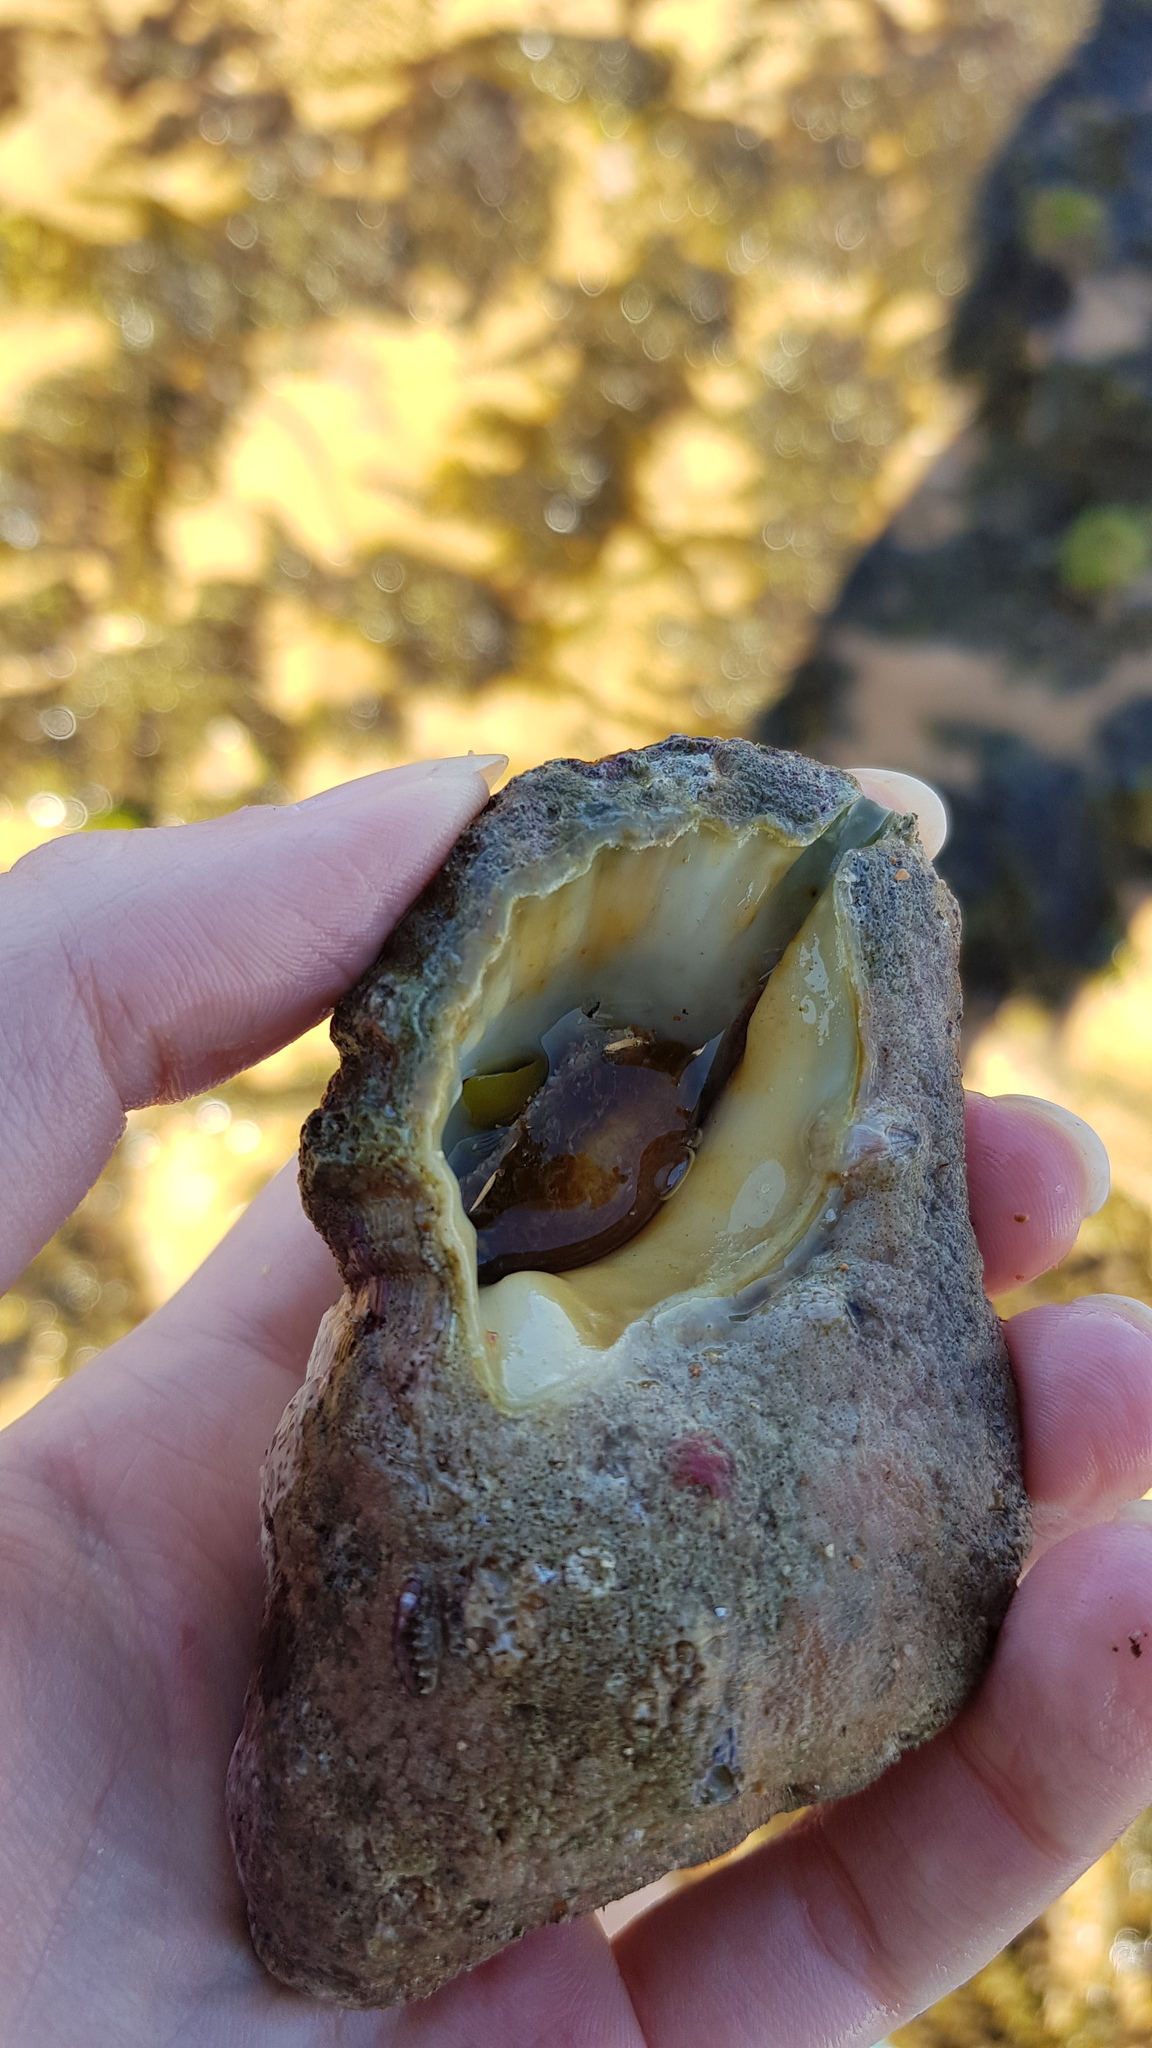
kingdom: Animalia
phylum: Mollusca
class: Gastropoda
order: Littorinimorpha
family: Cymatiidae
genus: Cabestana
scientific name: Cabestana spengleri
